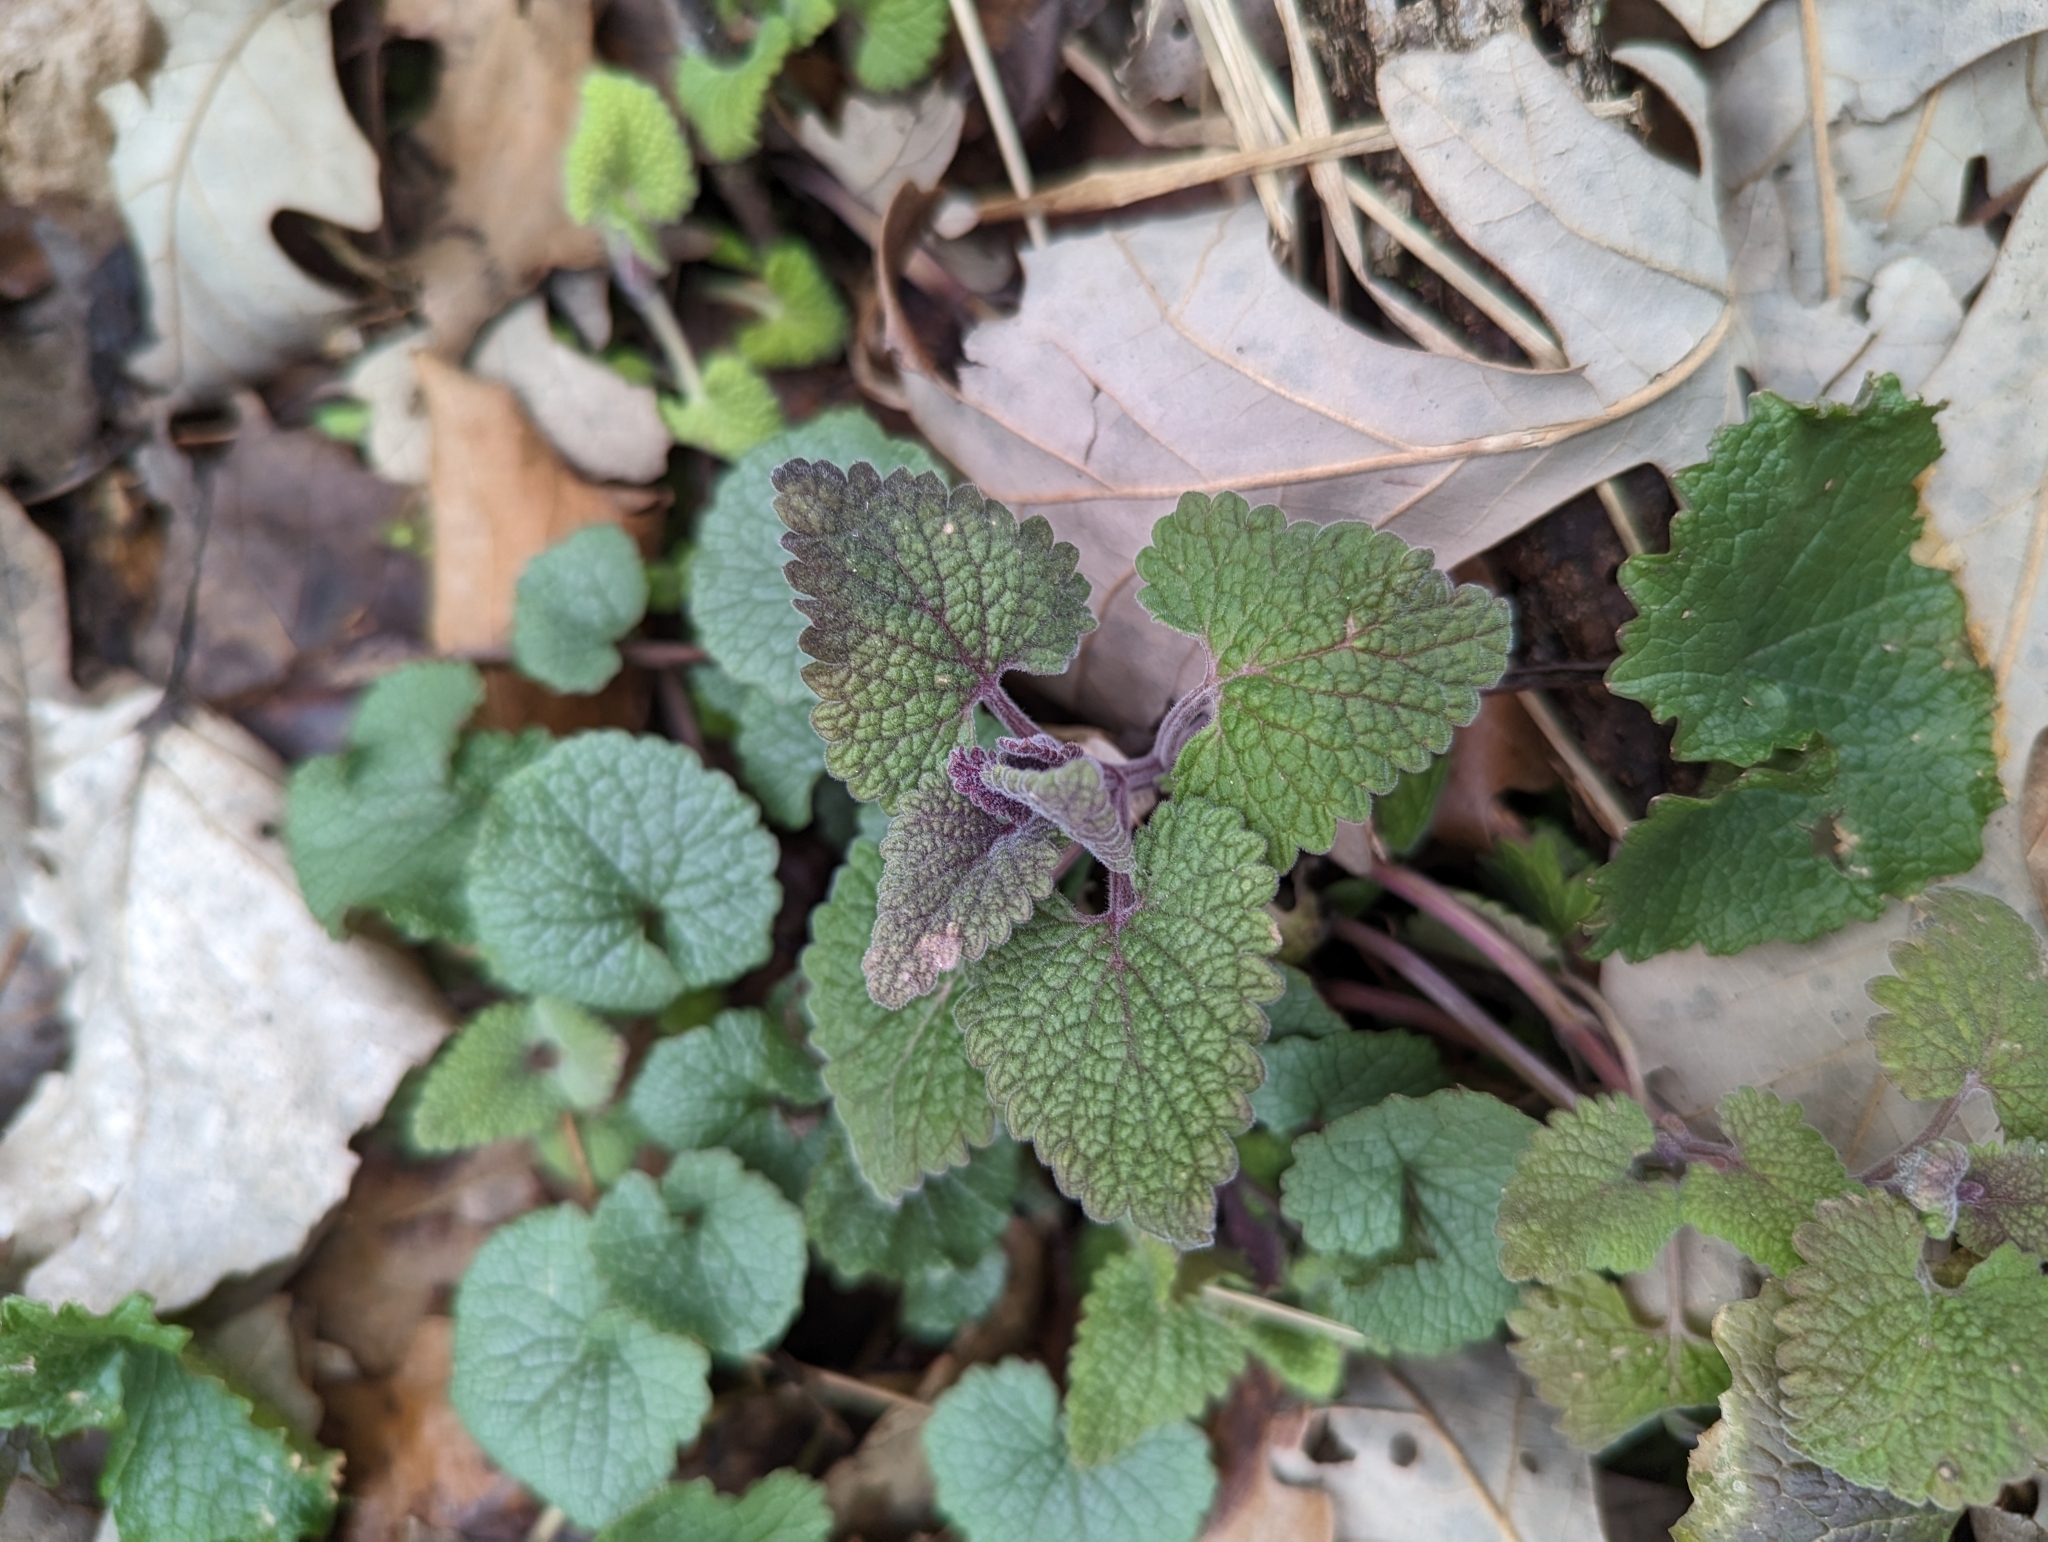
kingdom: Plantae
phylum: Tracheophyta
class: Magnoliopsida
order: Lamiales
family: Lamiaceae
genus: Lamium
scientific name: Lamium purpureum
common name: Red dead-nettle
